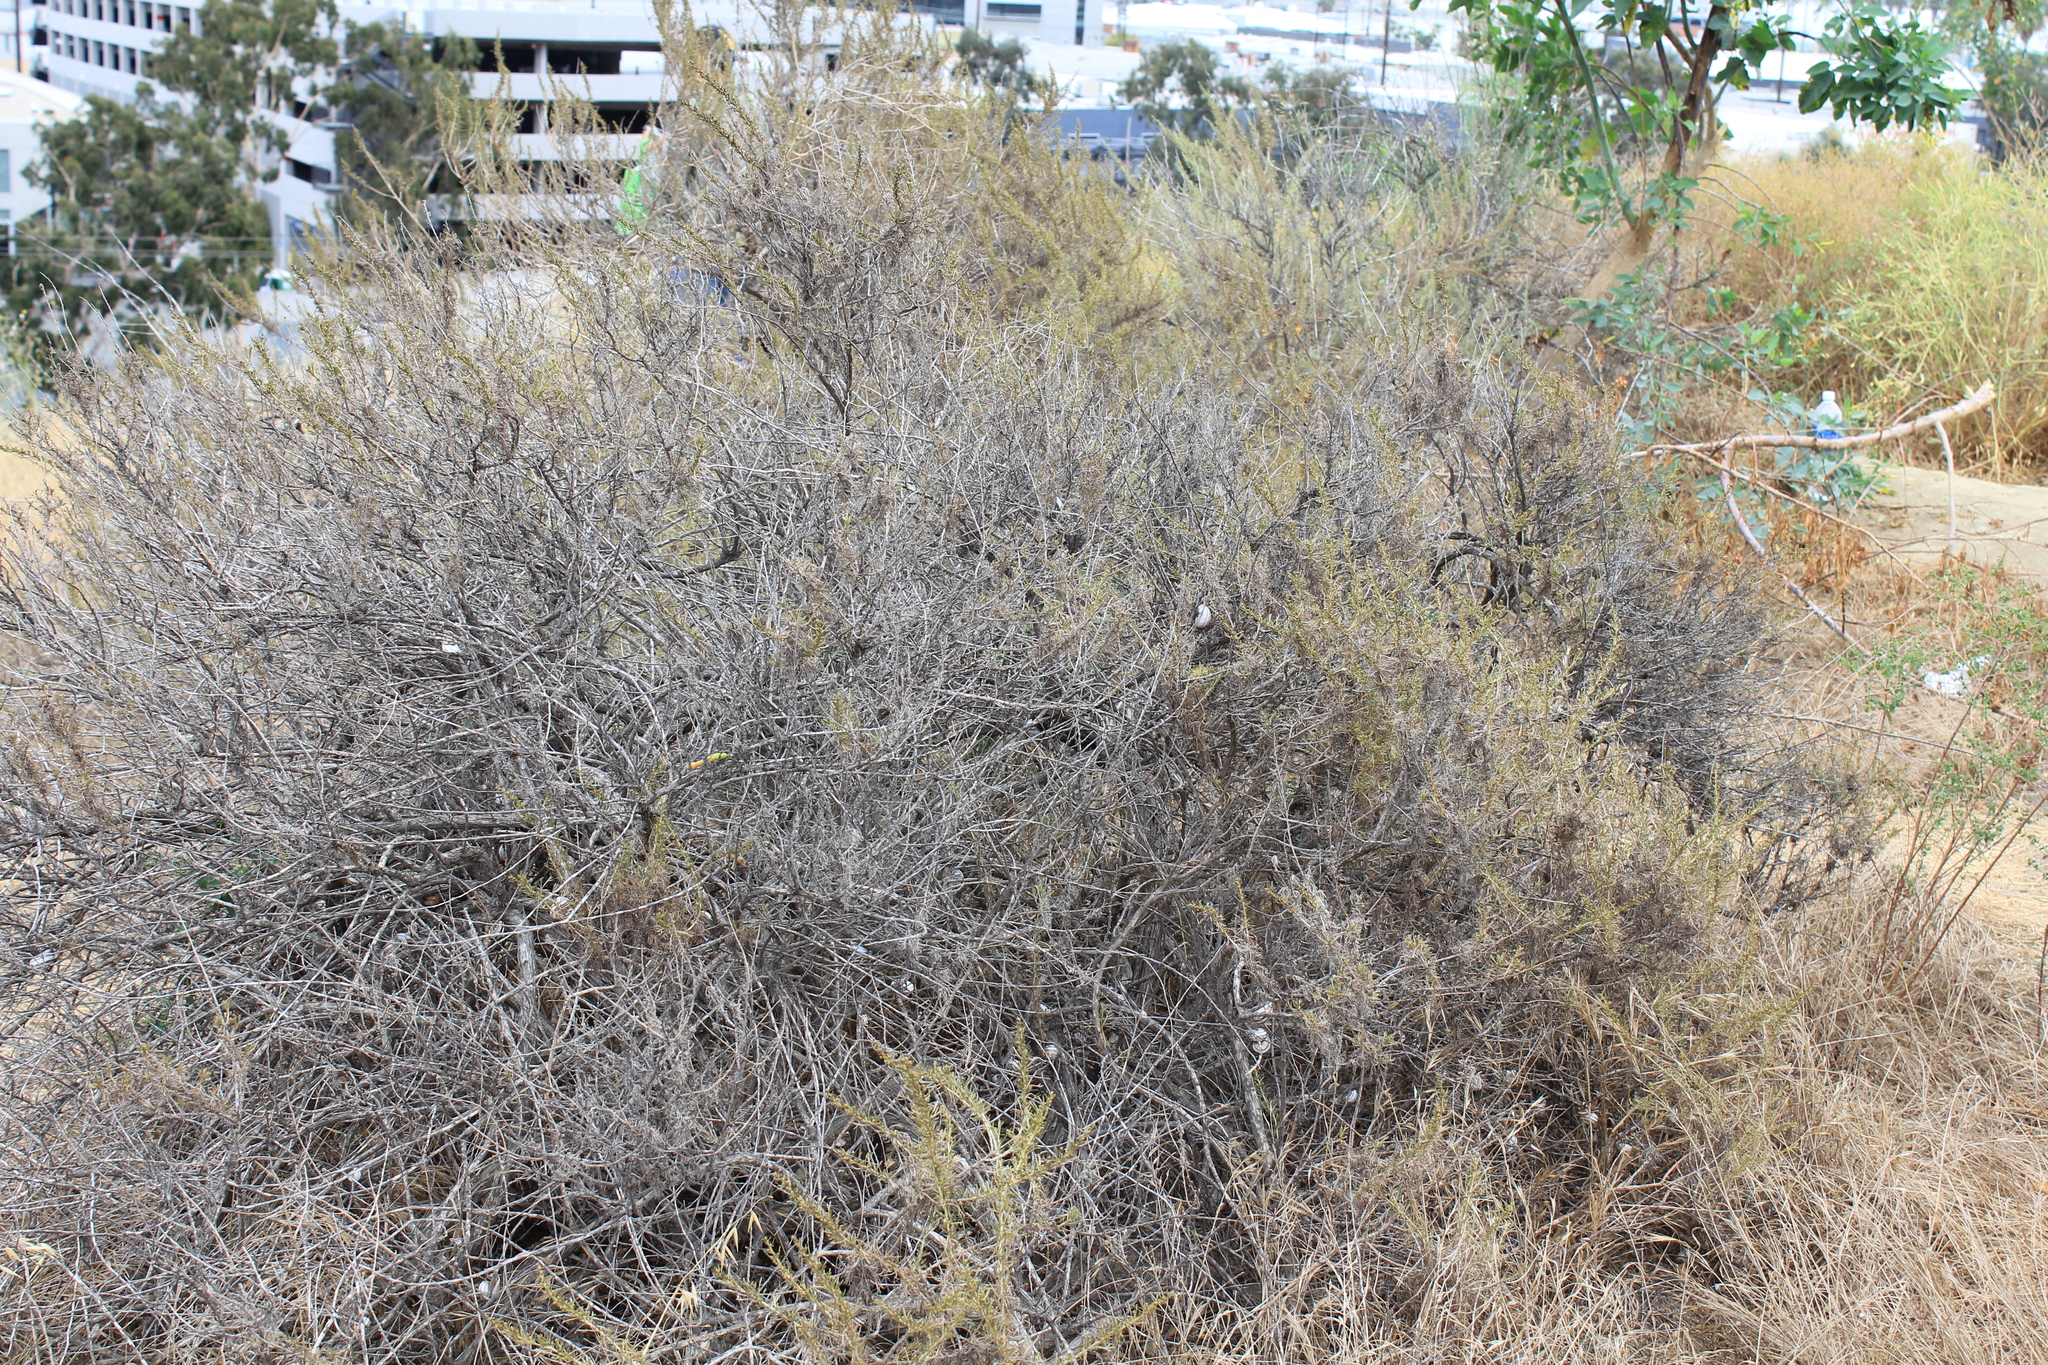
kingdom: Plantae
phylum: Tracheophyta
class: Magnoliopsida
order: Asterales
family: Asteraceae
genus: Artemisia
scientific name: Artemisia californica
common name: California sagebrush
